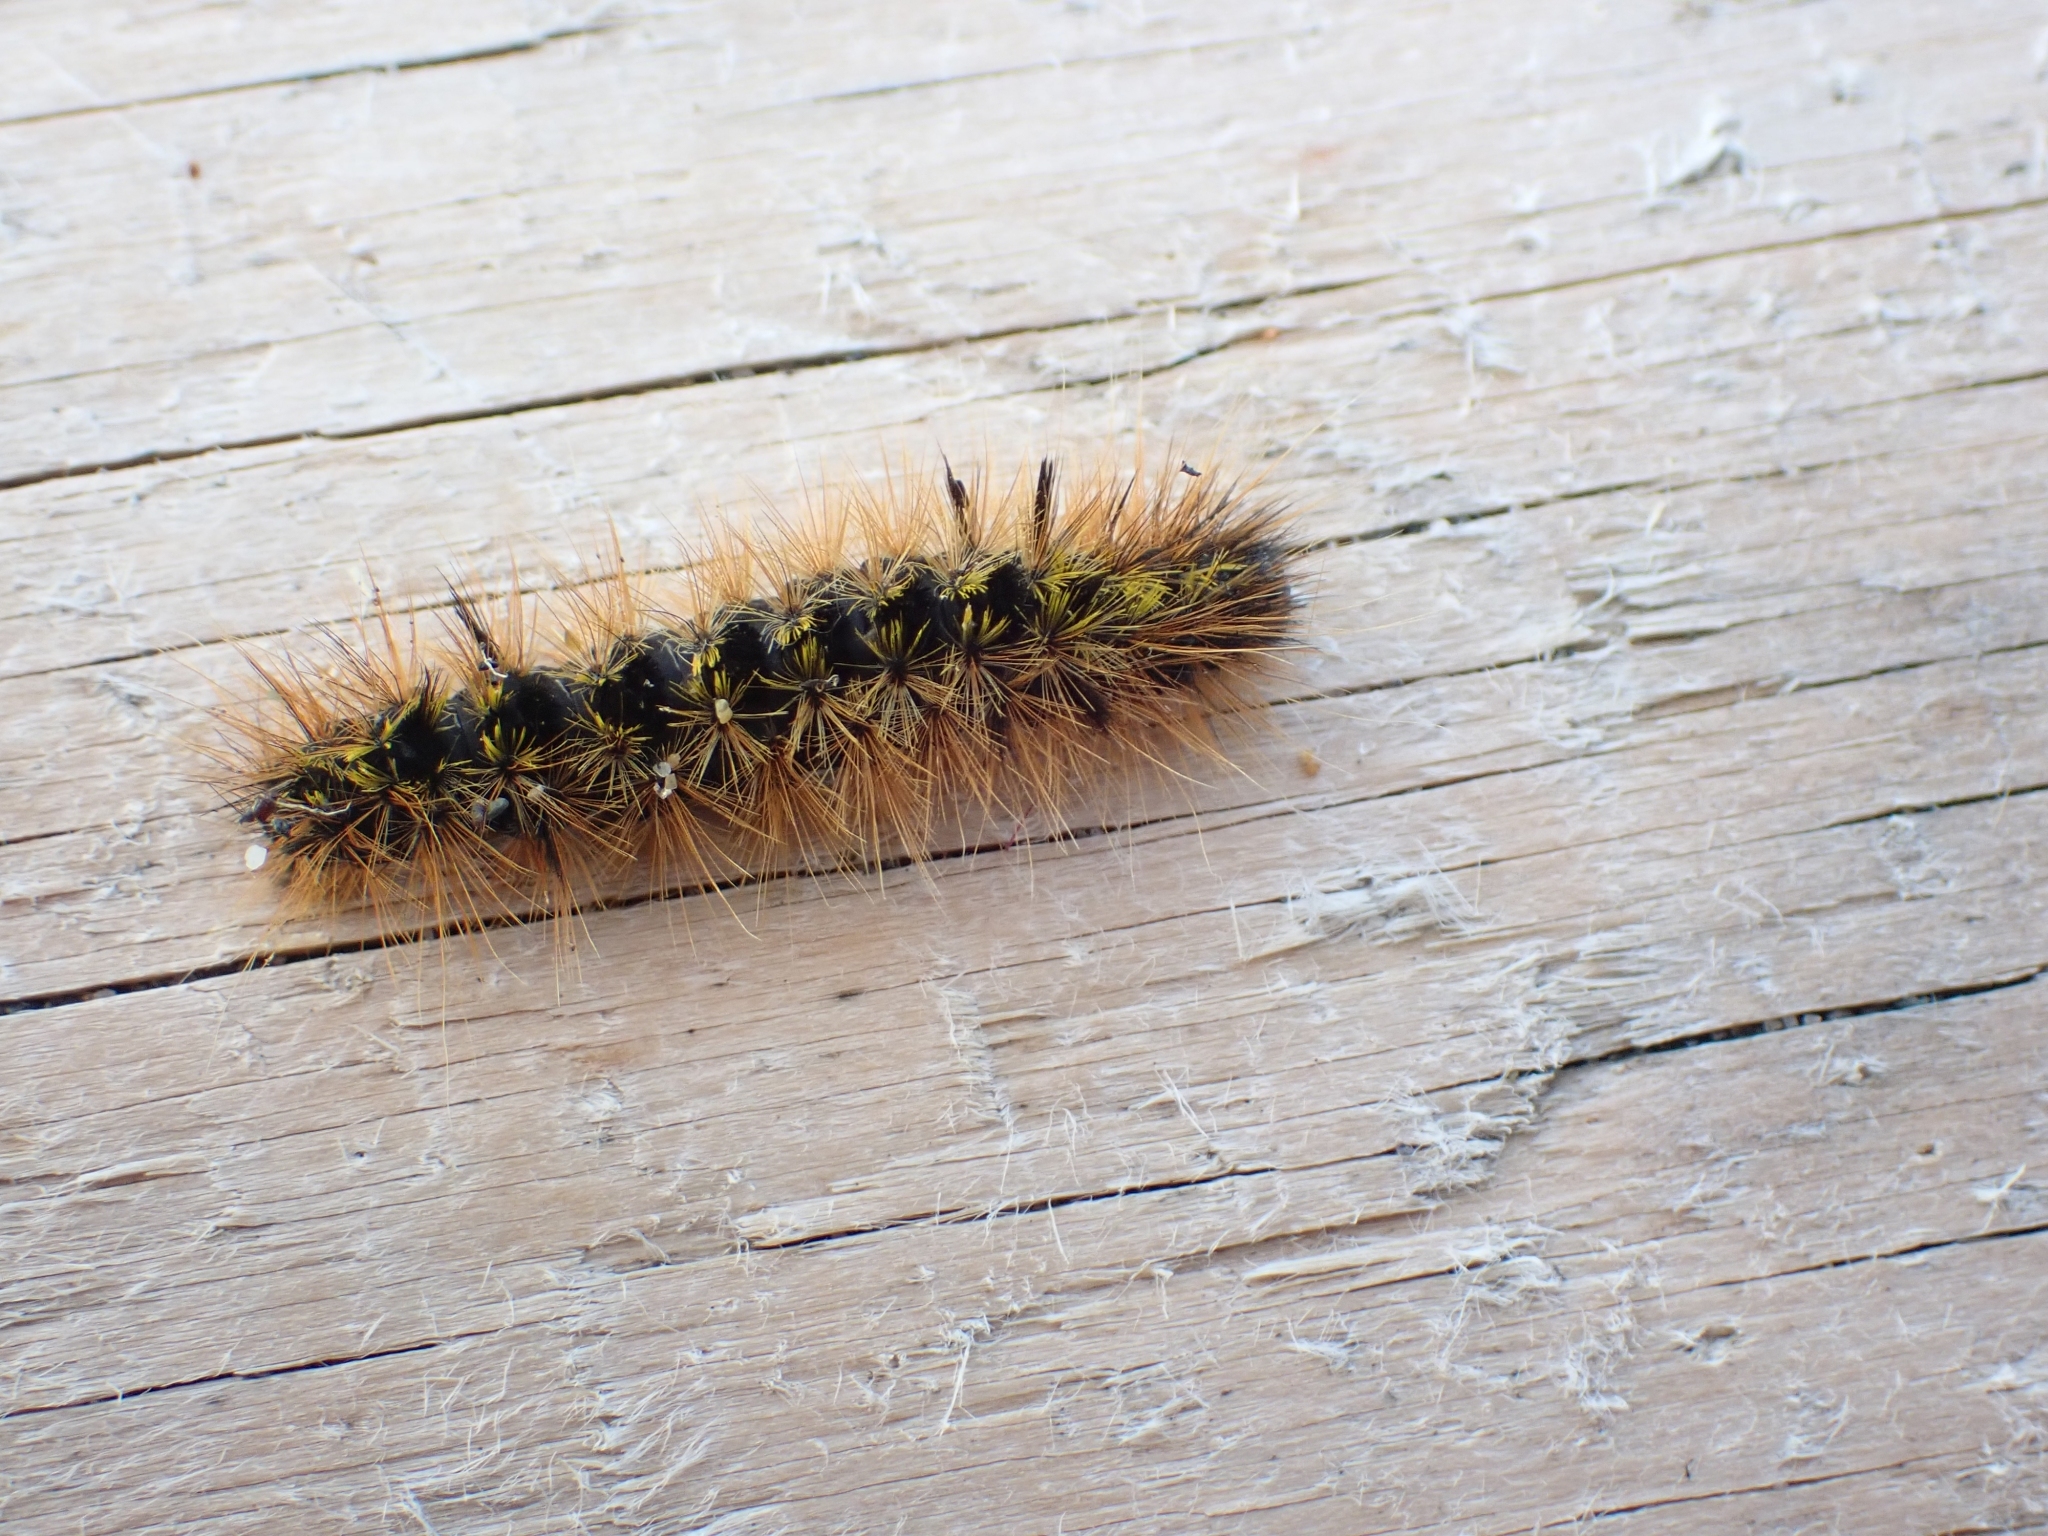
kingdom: Animalia
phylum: Arthropoda
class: Insecta
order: Lepidoptera
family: Erebidae
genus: Lophocampa
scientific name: Lophocampa argentata
